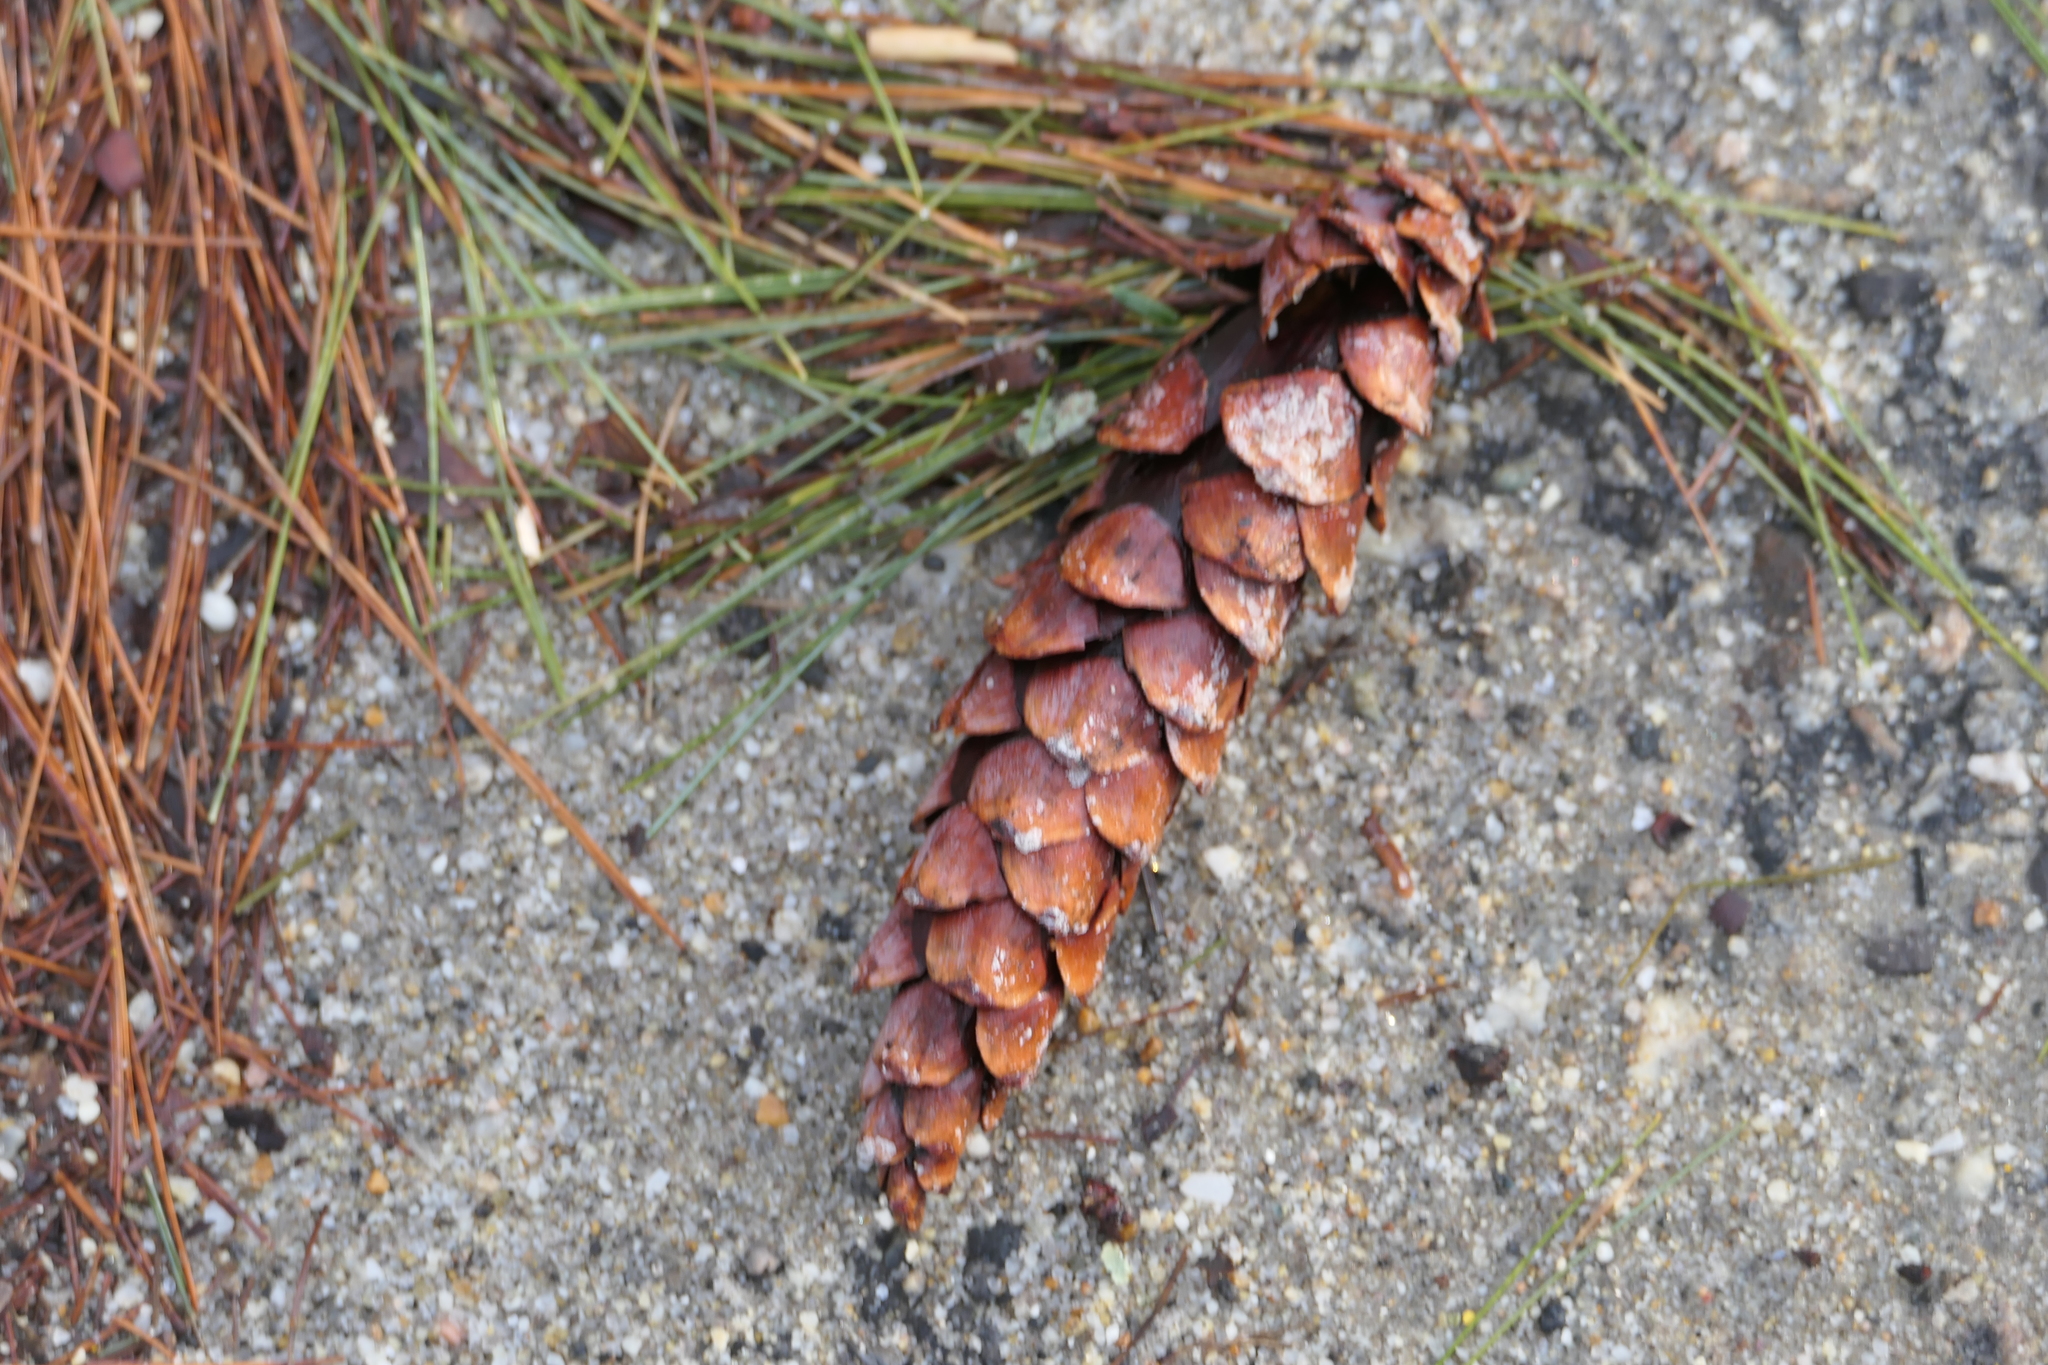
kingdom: Plantae
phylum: Tracheophyta
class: Pinopsida
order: Pinales
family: Pinaceae
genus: Pinus
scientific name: Pinus strobus
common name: Weymouth pine
